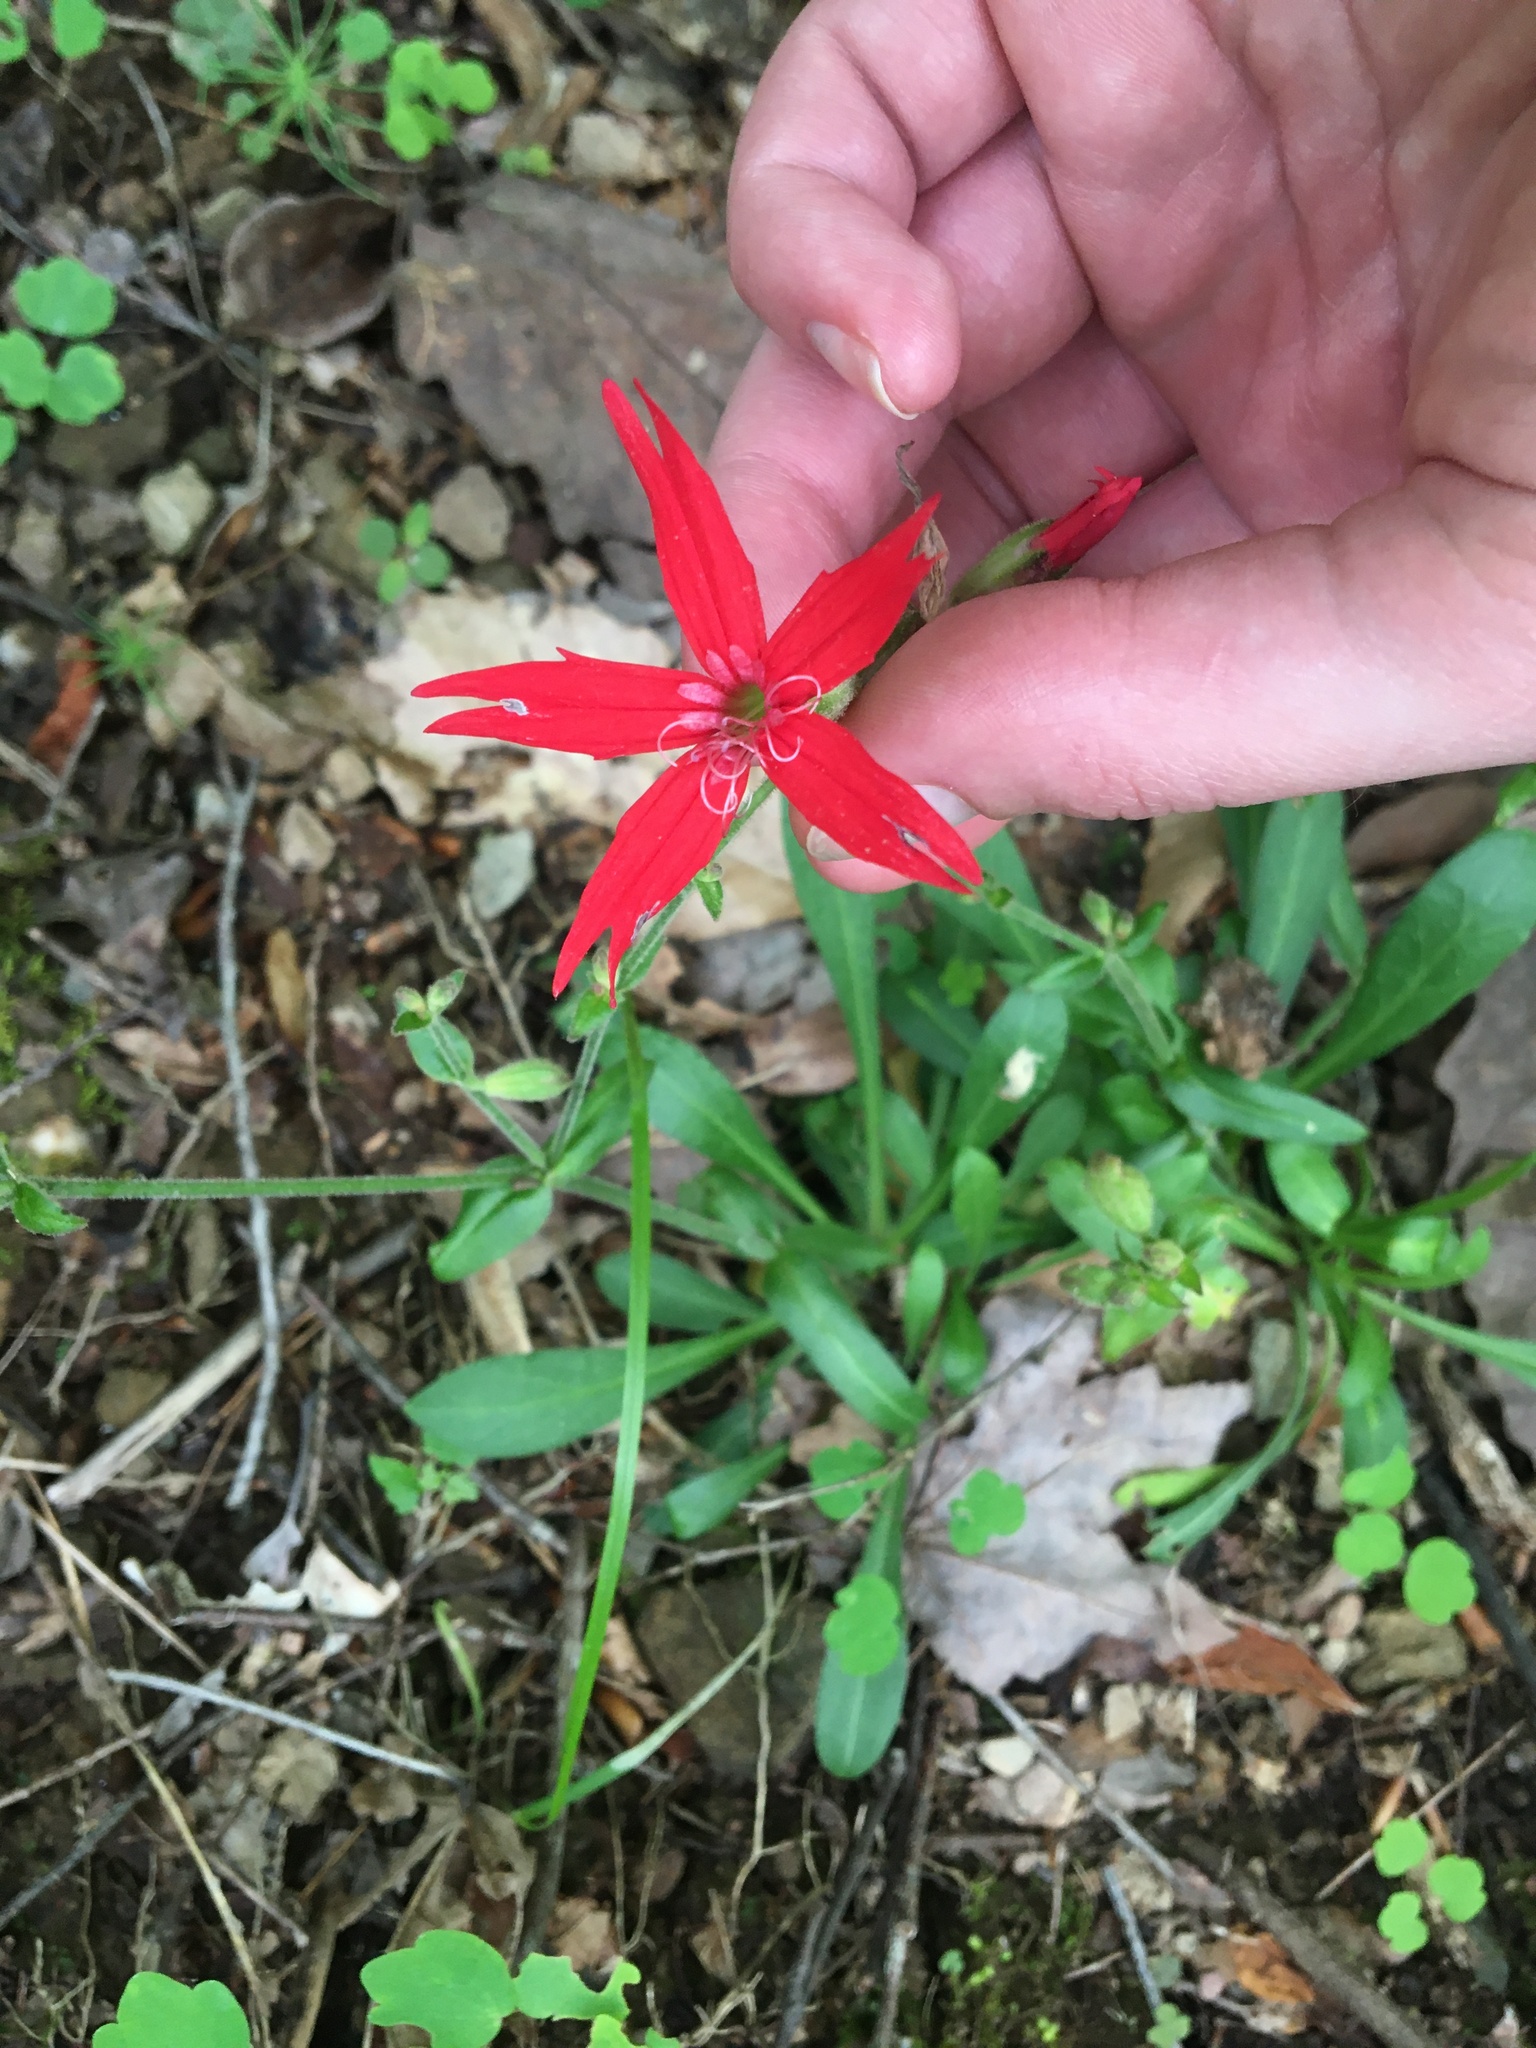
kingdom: Plantae
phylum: Tracheophyta
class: Magnoliopsida
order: Caryophyllales
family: Caryophyllaceae
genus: Silene
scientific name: Silene virginica
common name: Fire-pink
